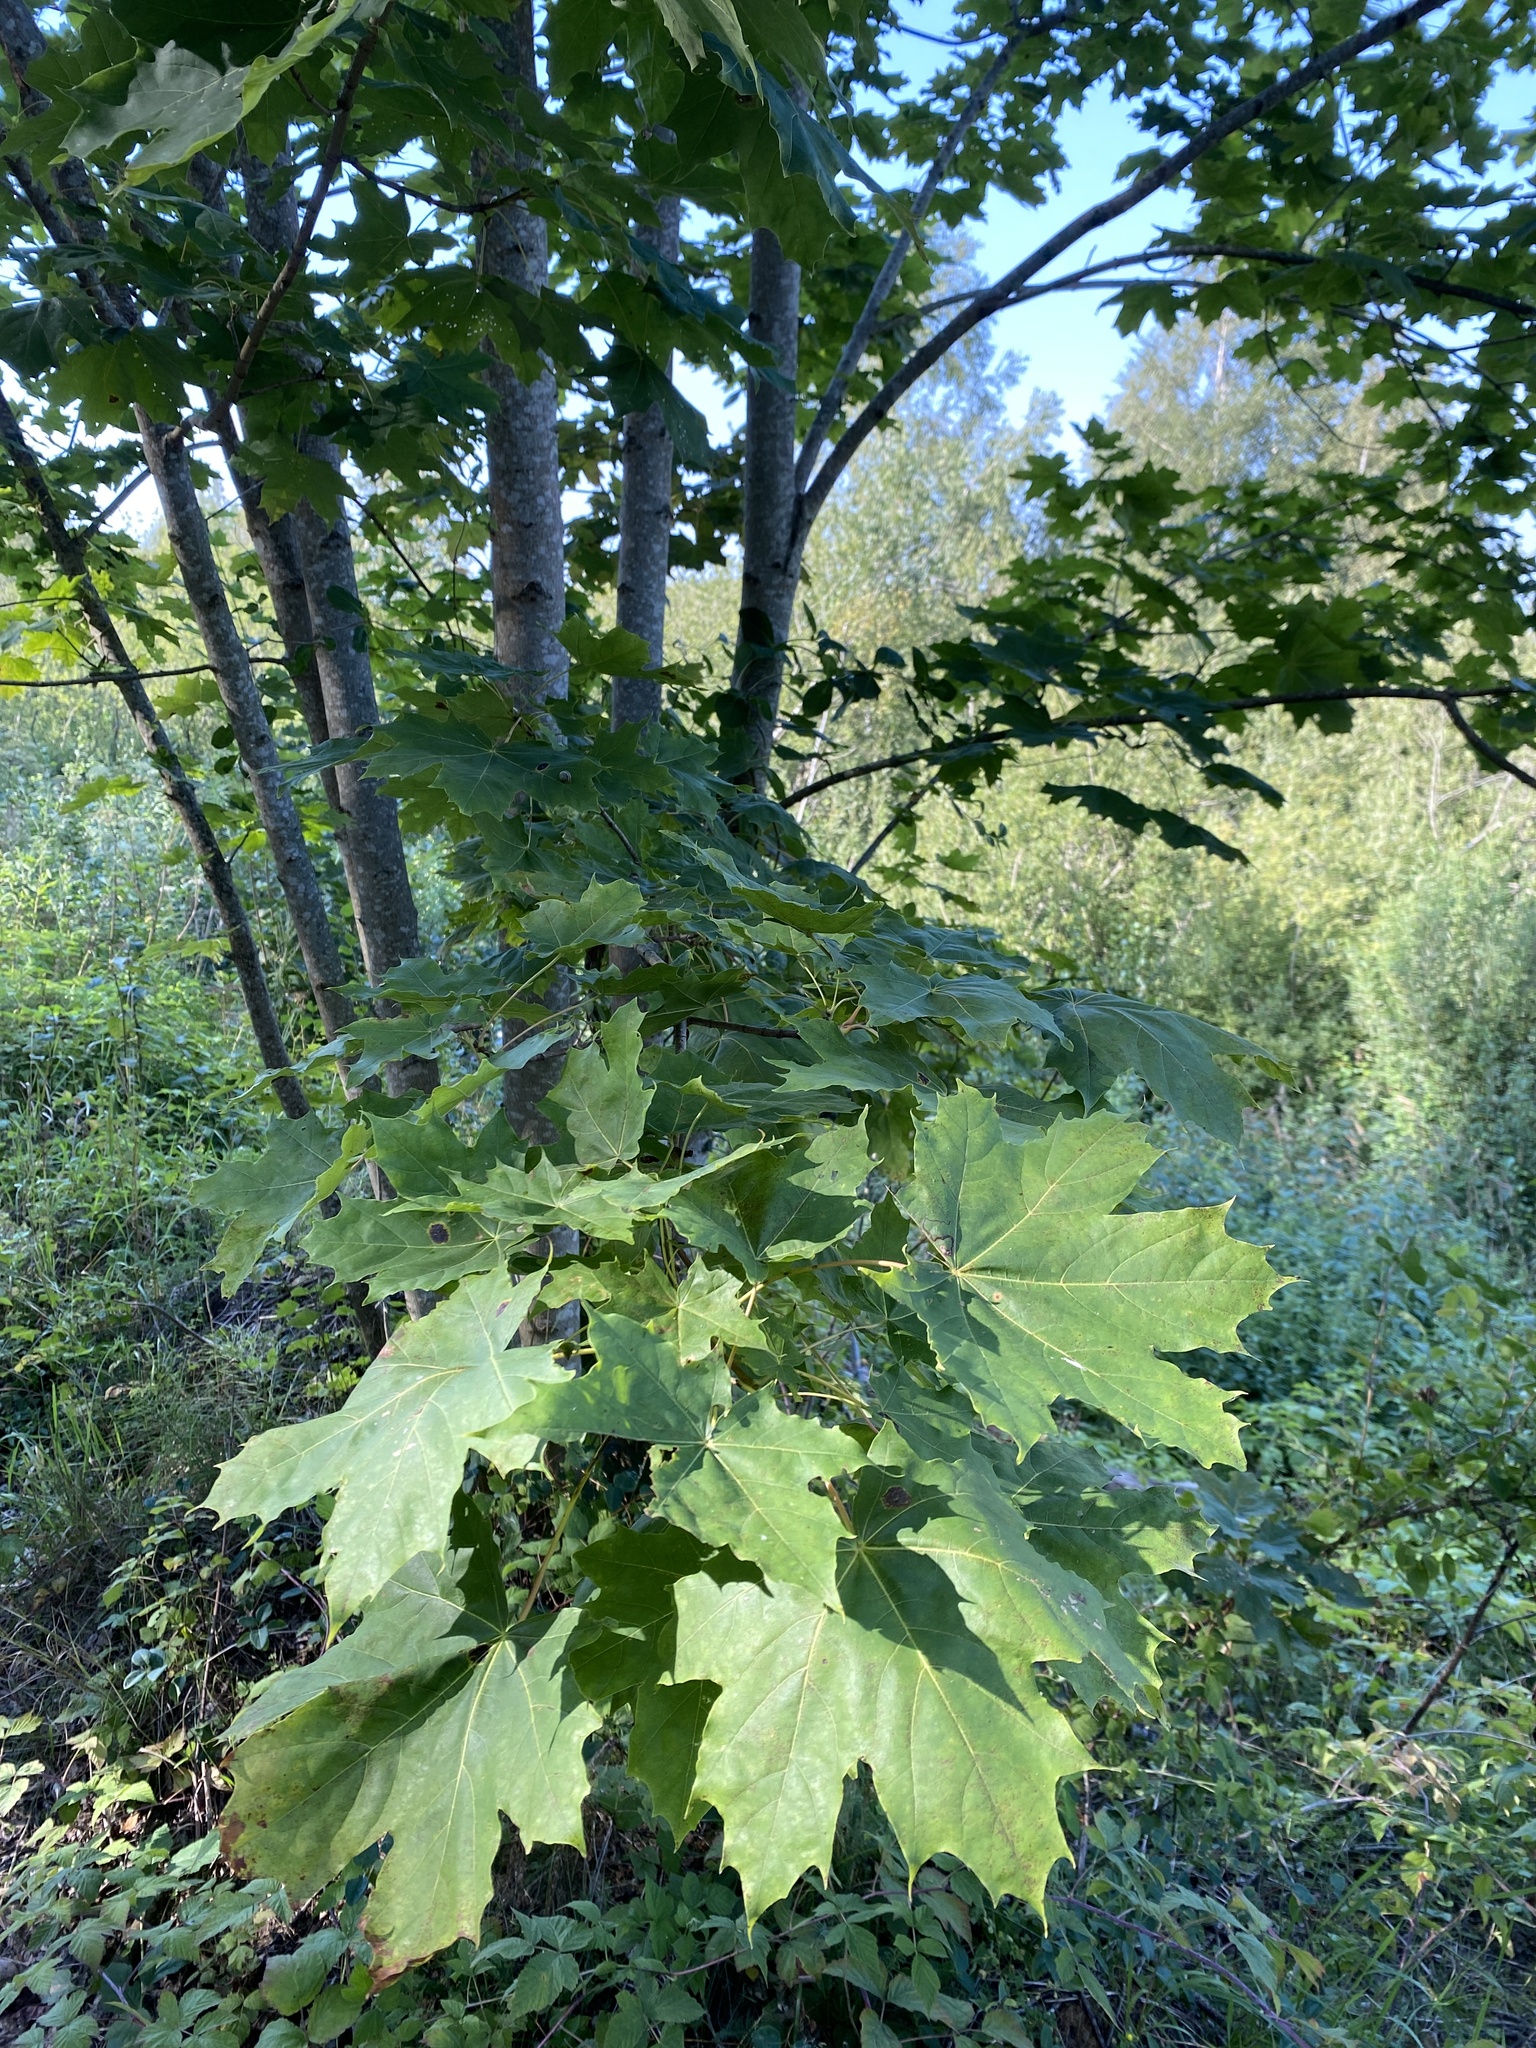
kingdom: Plantae
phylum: Tracheophyta
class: Magnoliopsida
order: Sapindales
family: Sapindaceae
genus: Acer
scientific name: Acer platanoides
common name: Norway maple
